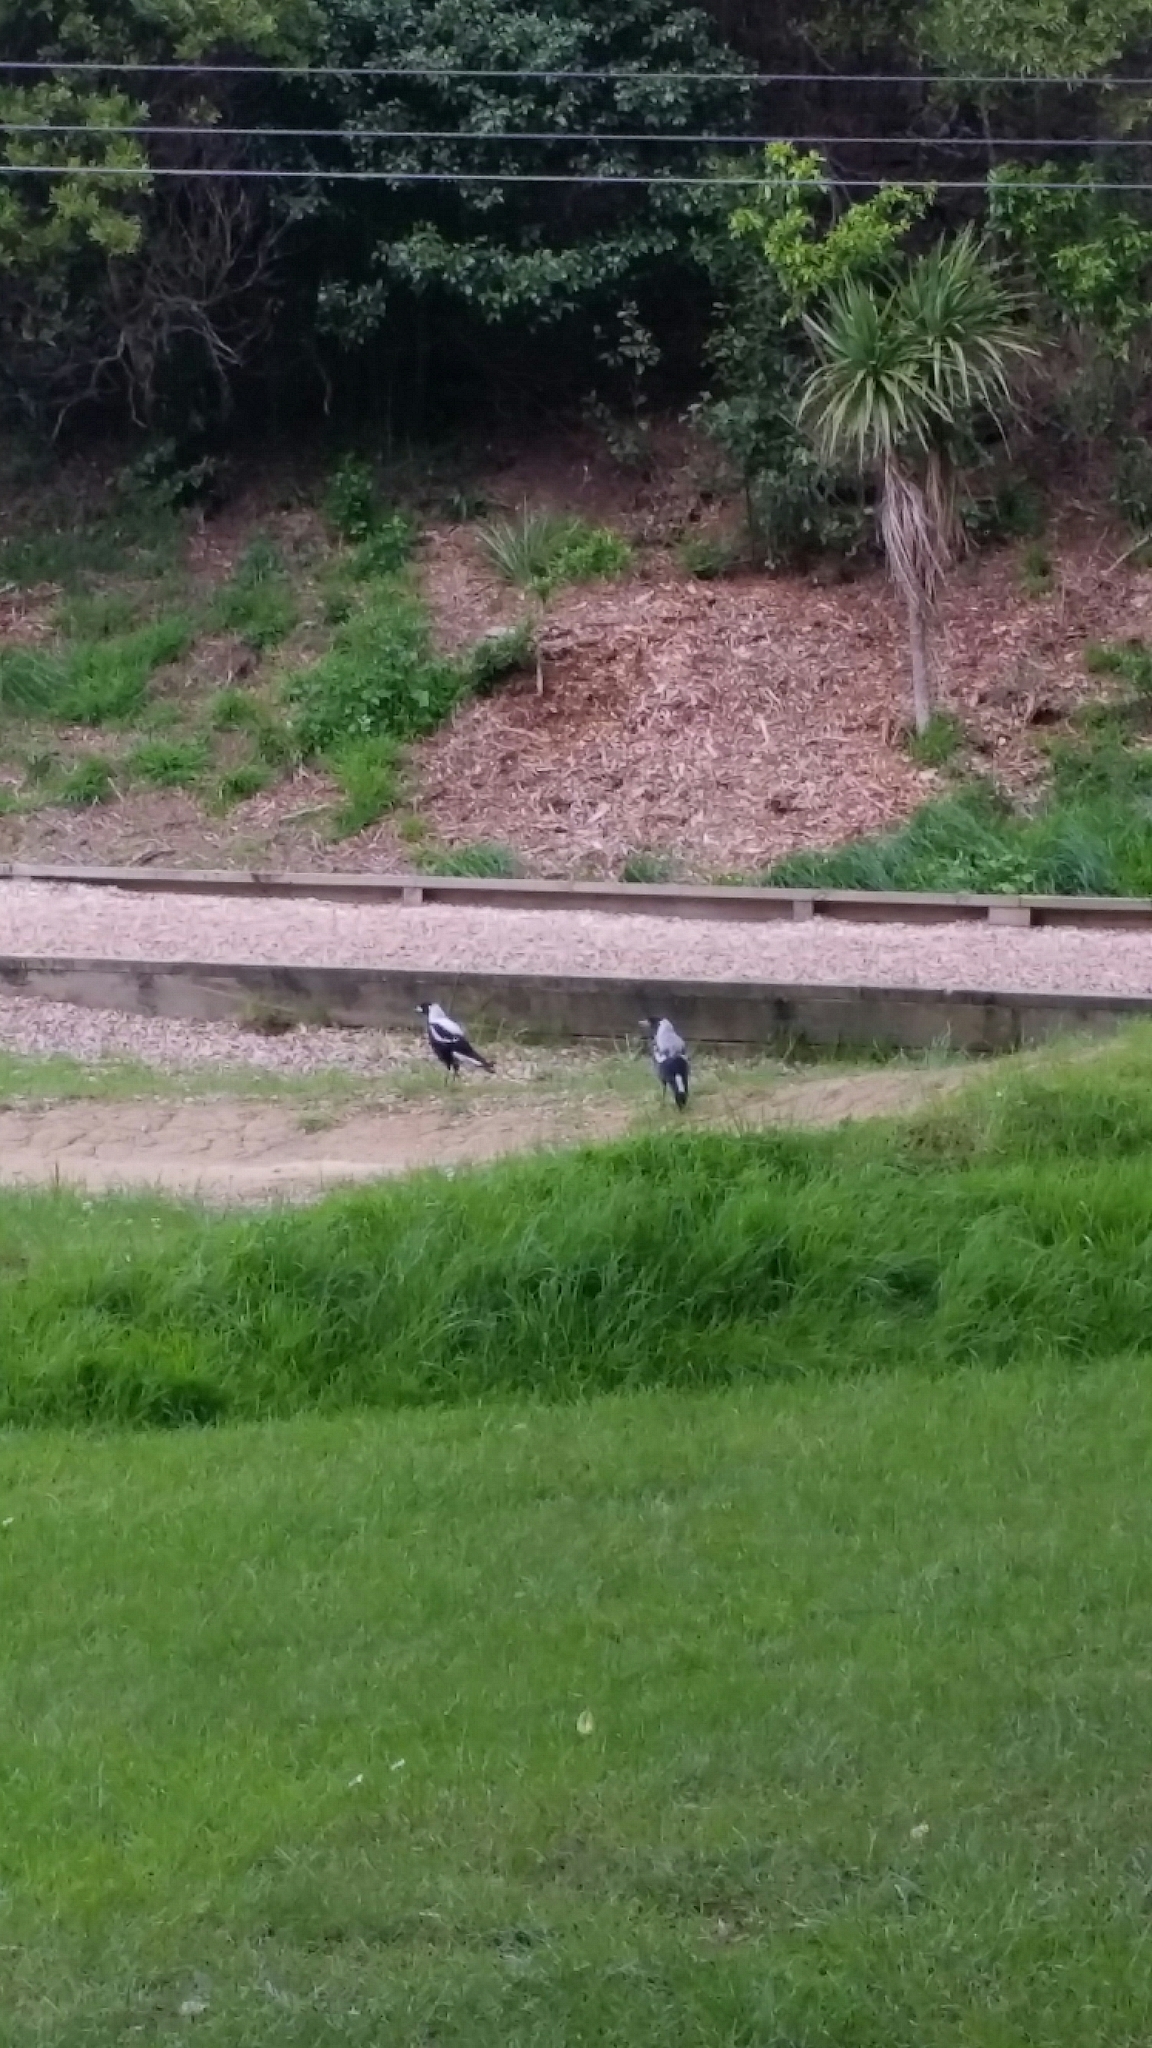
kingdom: Animalia
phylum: Chordata
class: Aves
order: Passeriformes
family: Cracticidae
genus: Gymnorhina
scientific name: Gymnorhina tibicen
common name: Australian magpie
